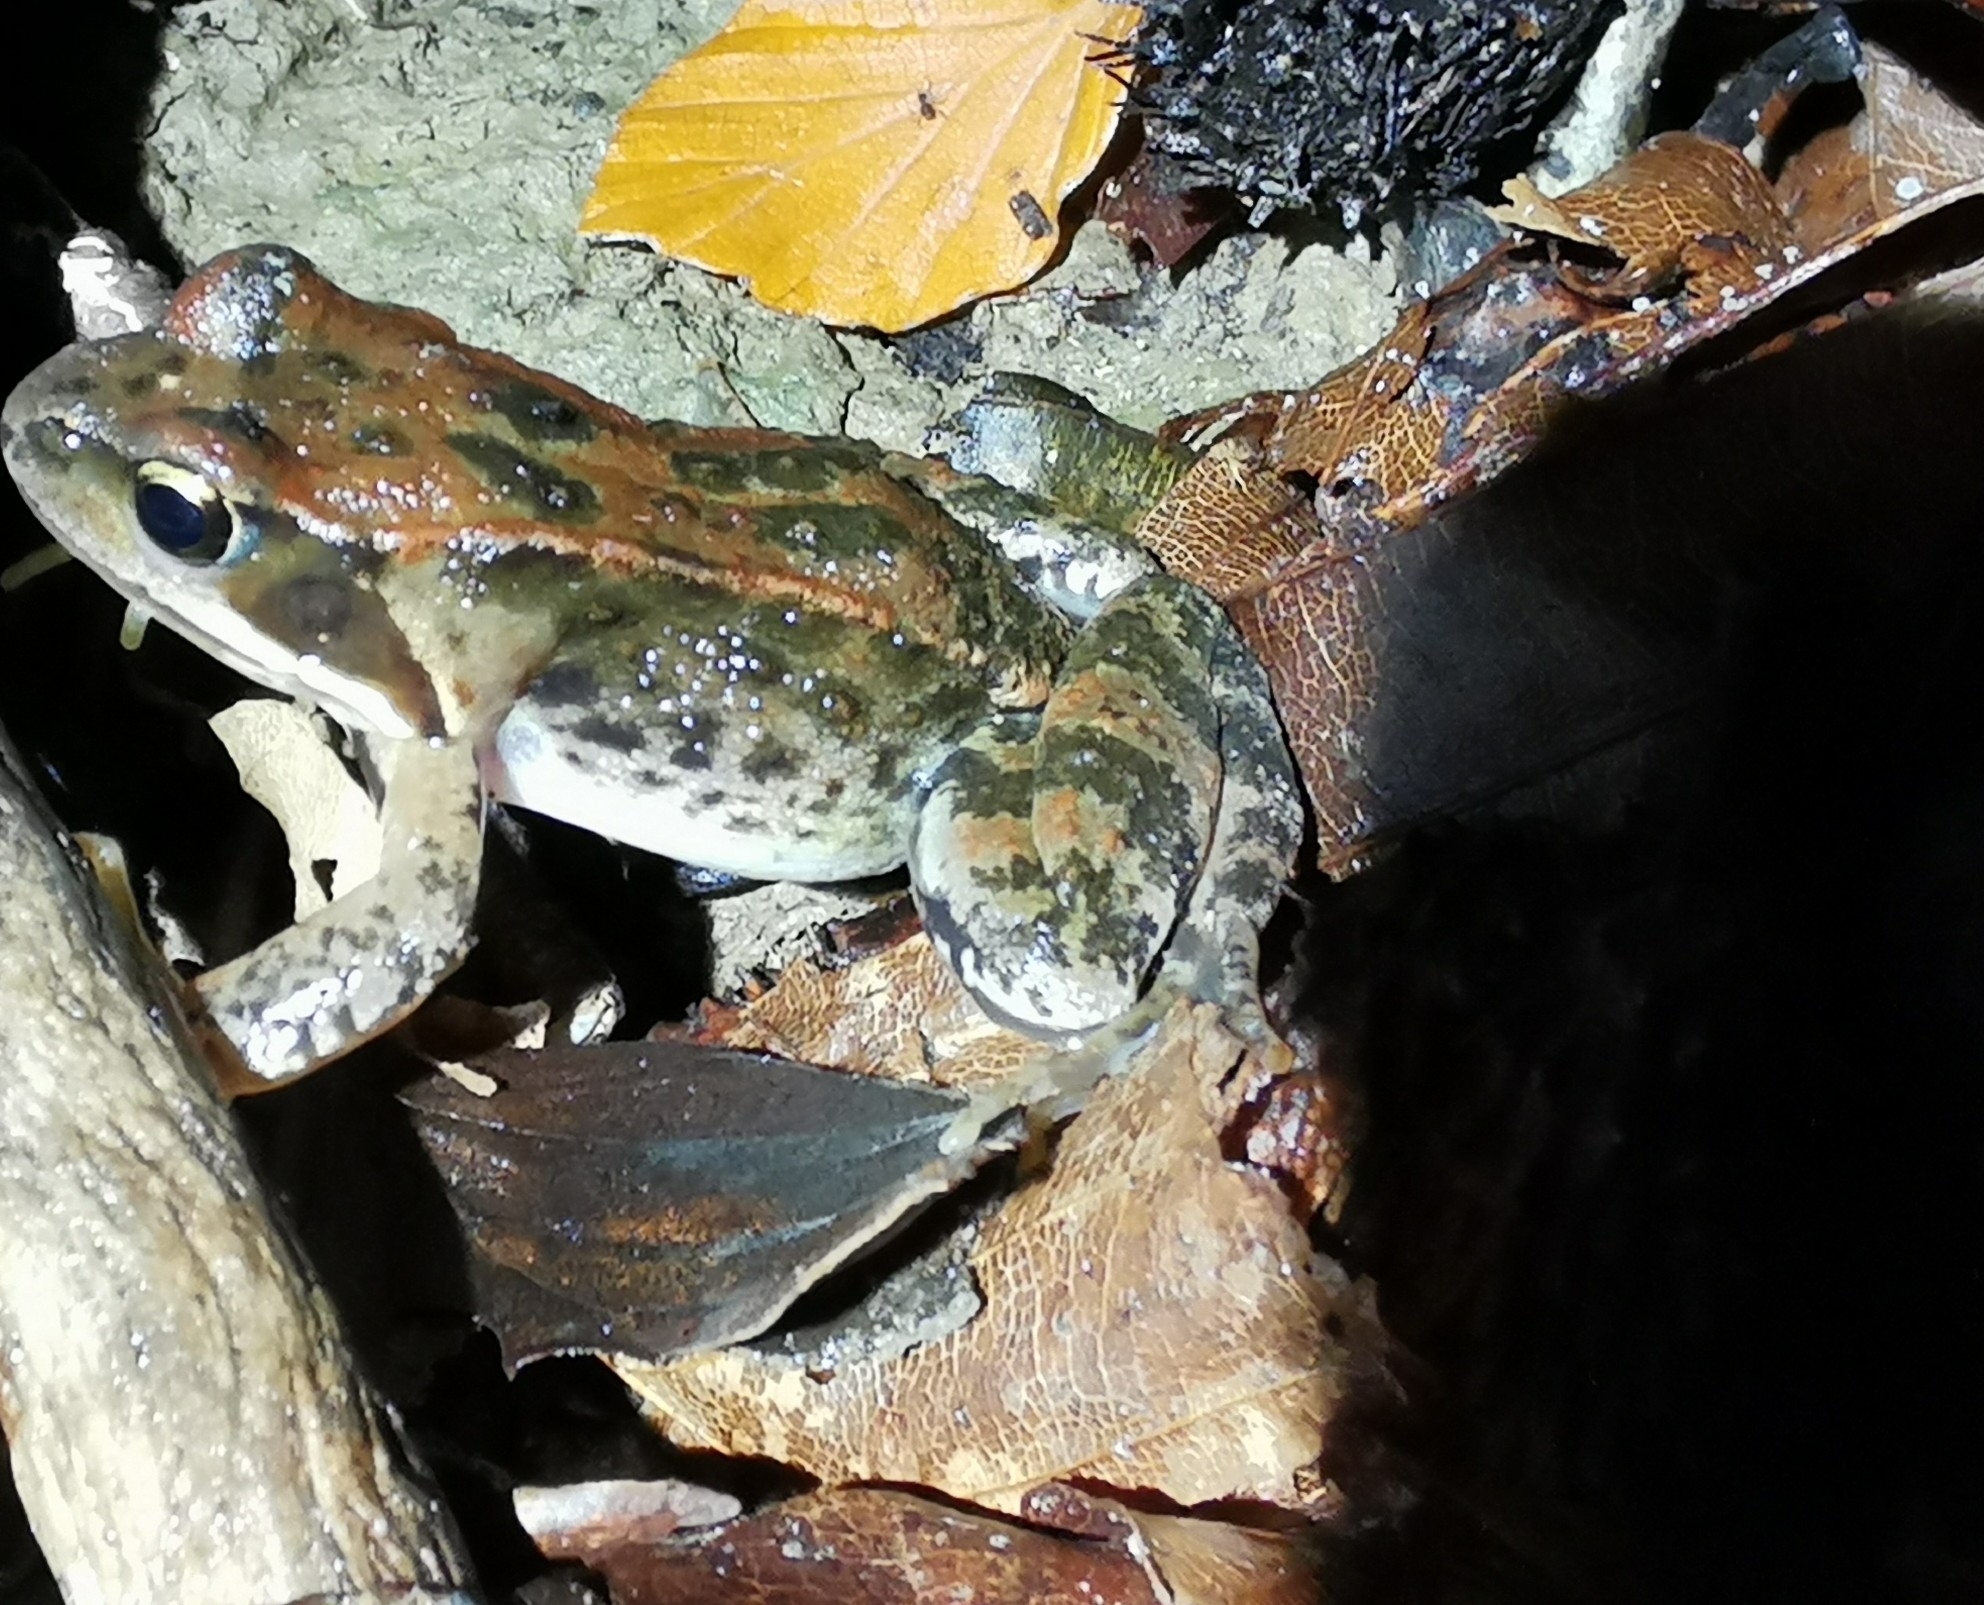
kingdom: Animalia
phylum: Chordata
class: Amphibia
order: Anura
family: Ranidae
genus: Rana
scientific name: Rana temporaria
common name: Common frog
